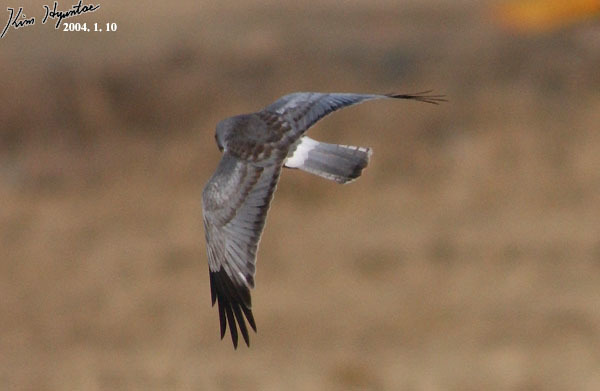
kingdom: Animalia
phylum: Chordata
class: Aves
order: Accipitriformes
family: Accipitridae
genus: Circus
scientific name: Circus cyaneus
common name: Hen harrier
